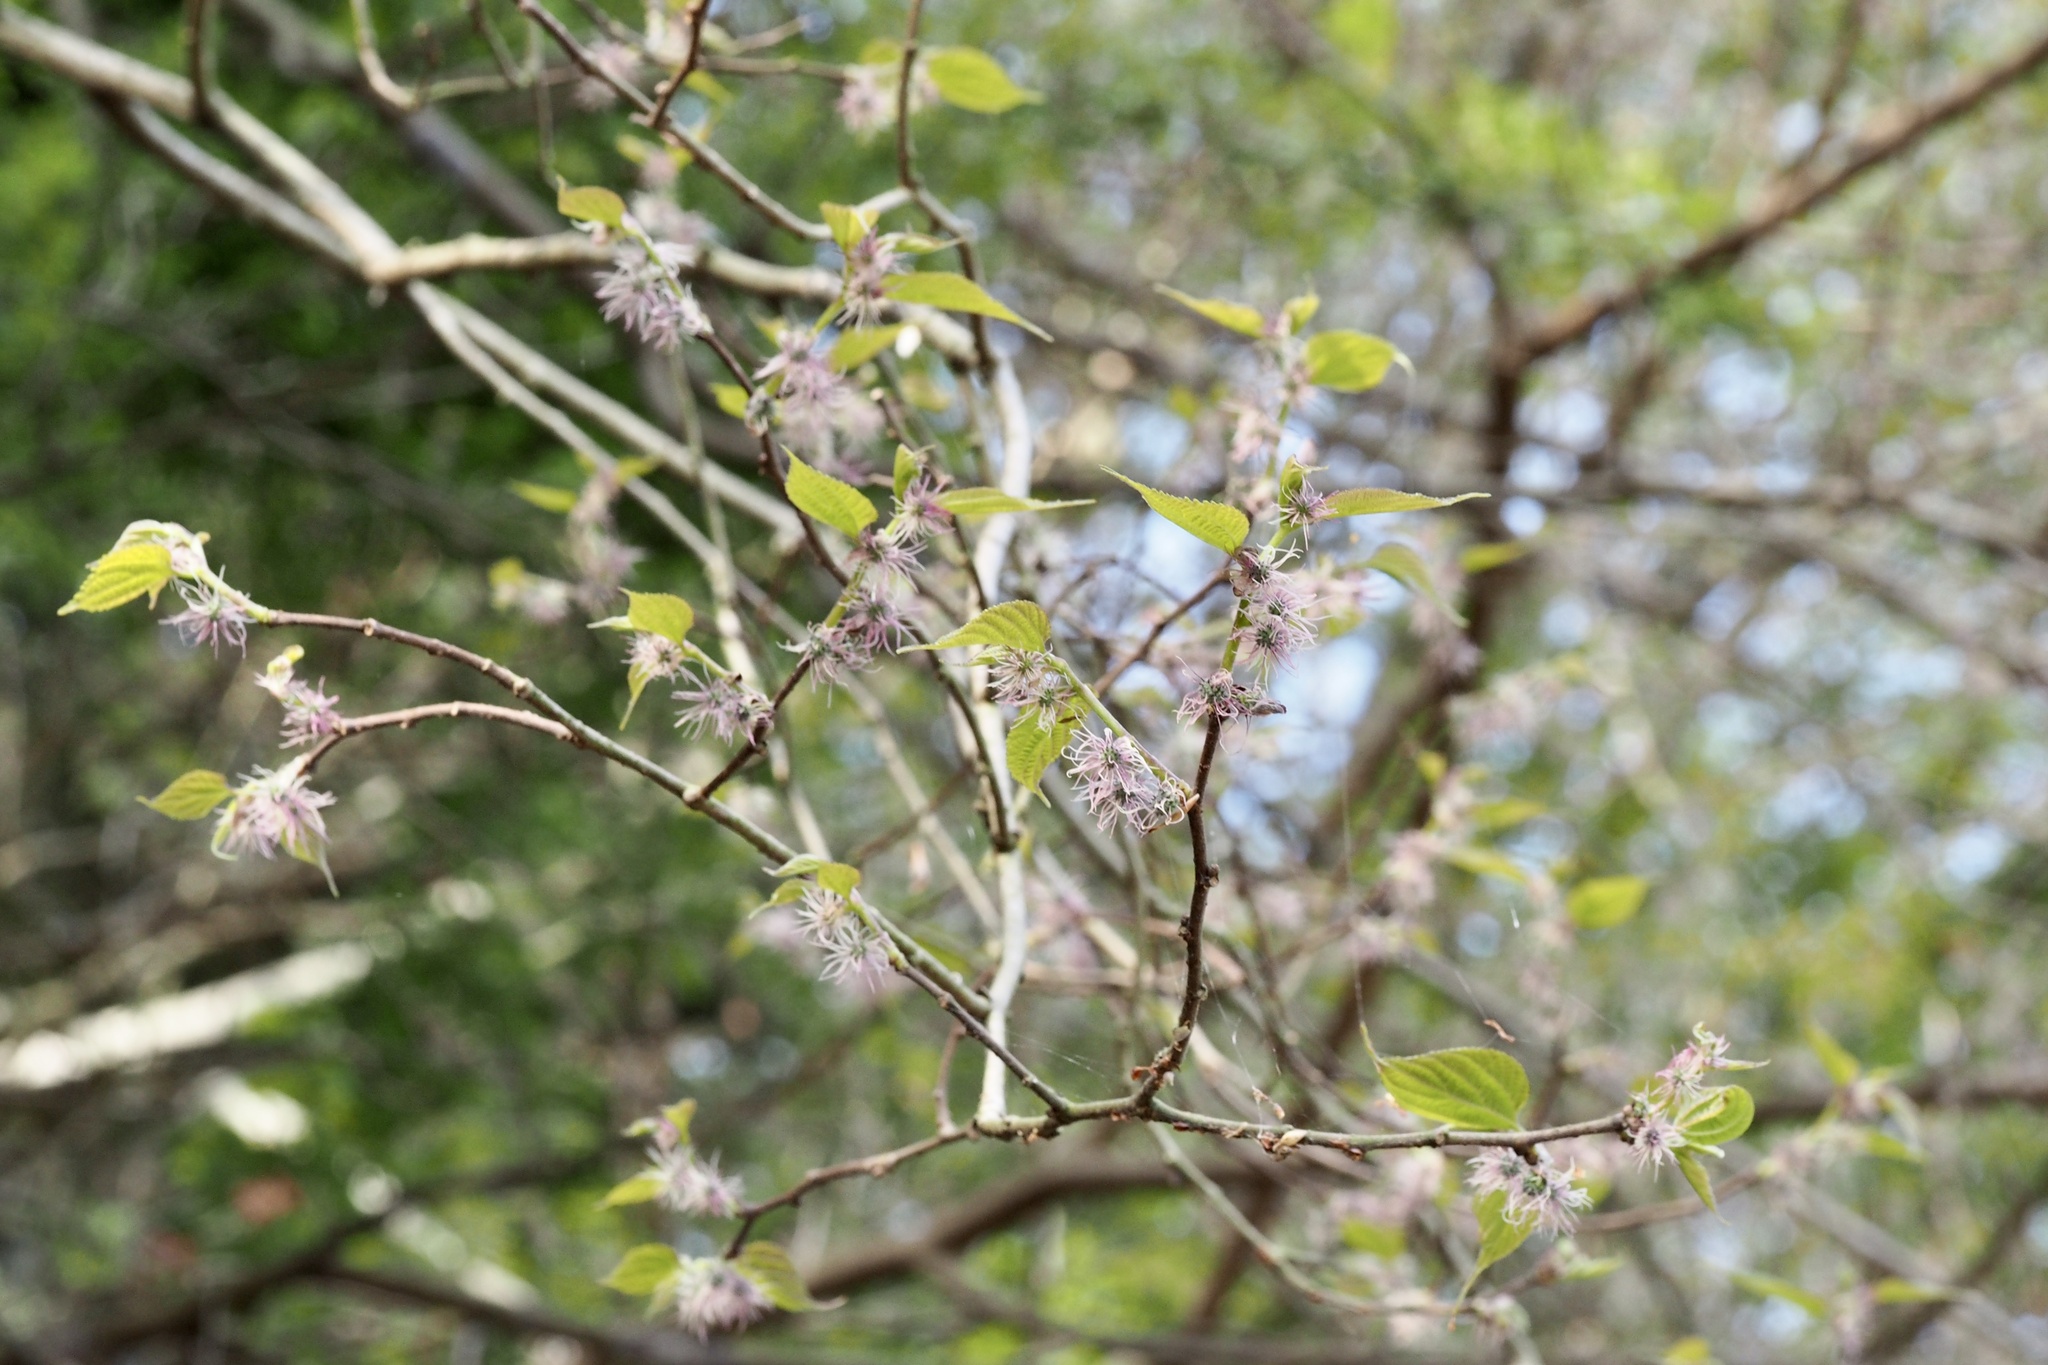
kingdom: Plantae
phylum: Tracheophyta
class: Magnoliopsida
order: Rosales
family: Moraceae
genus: Broussonetia
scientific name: Broussonetia monoica
